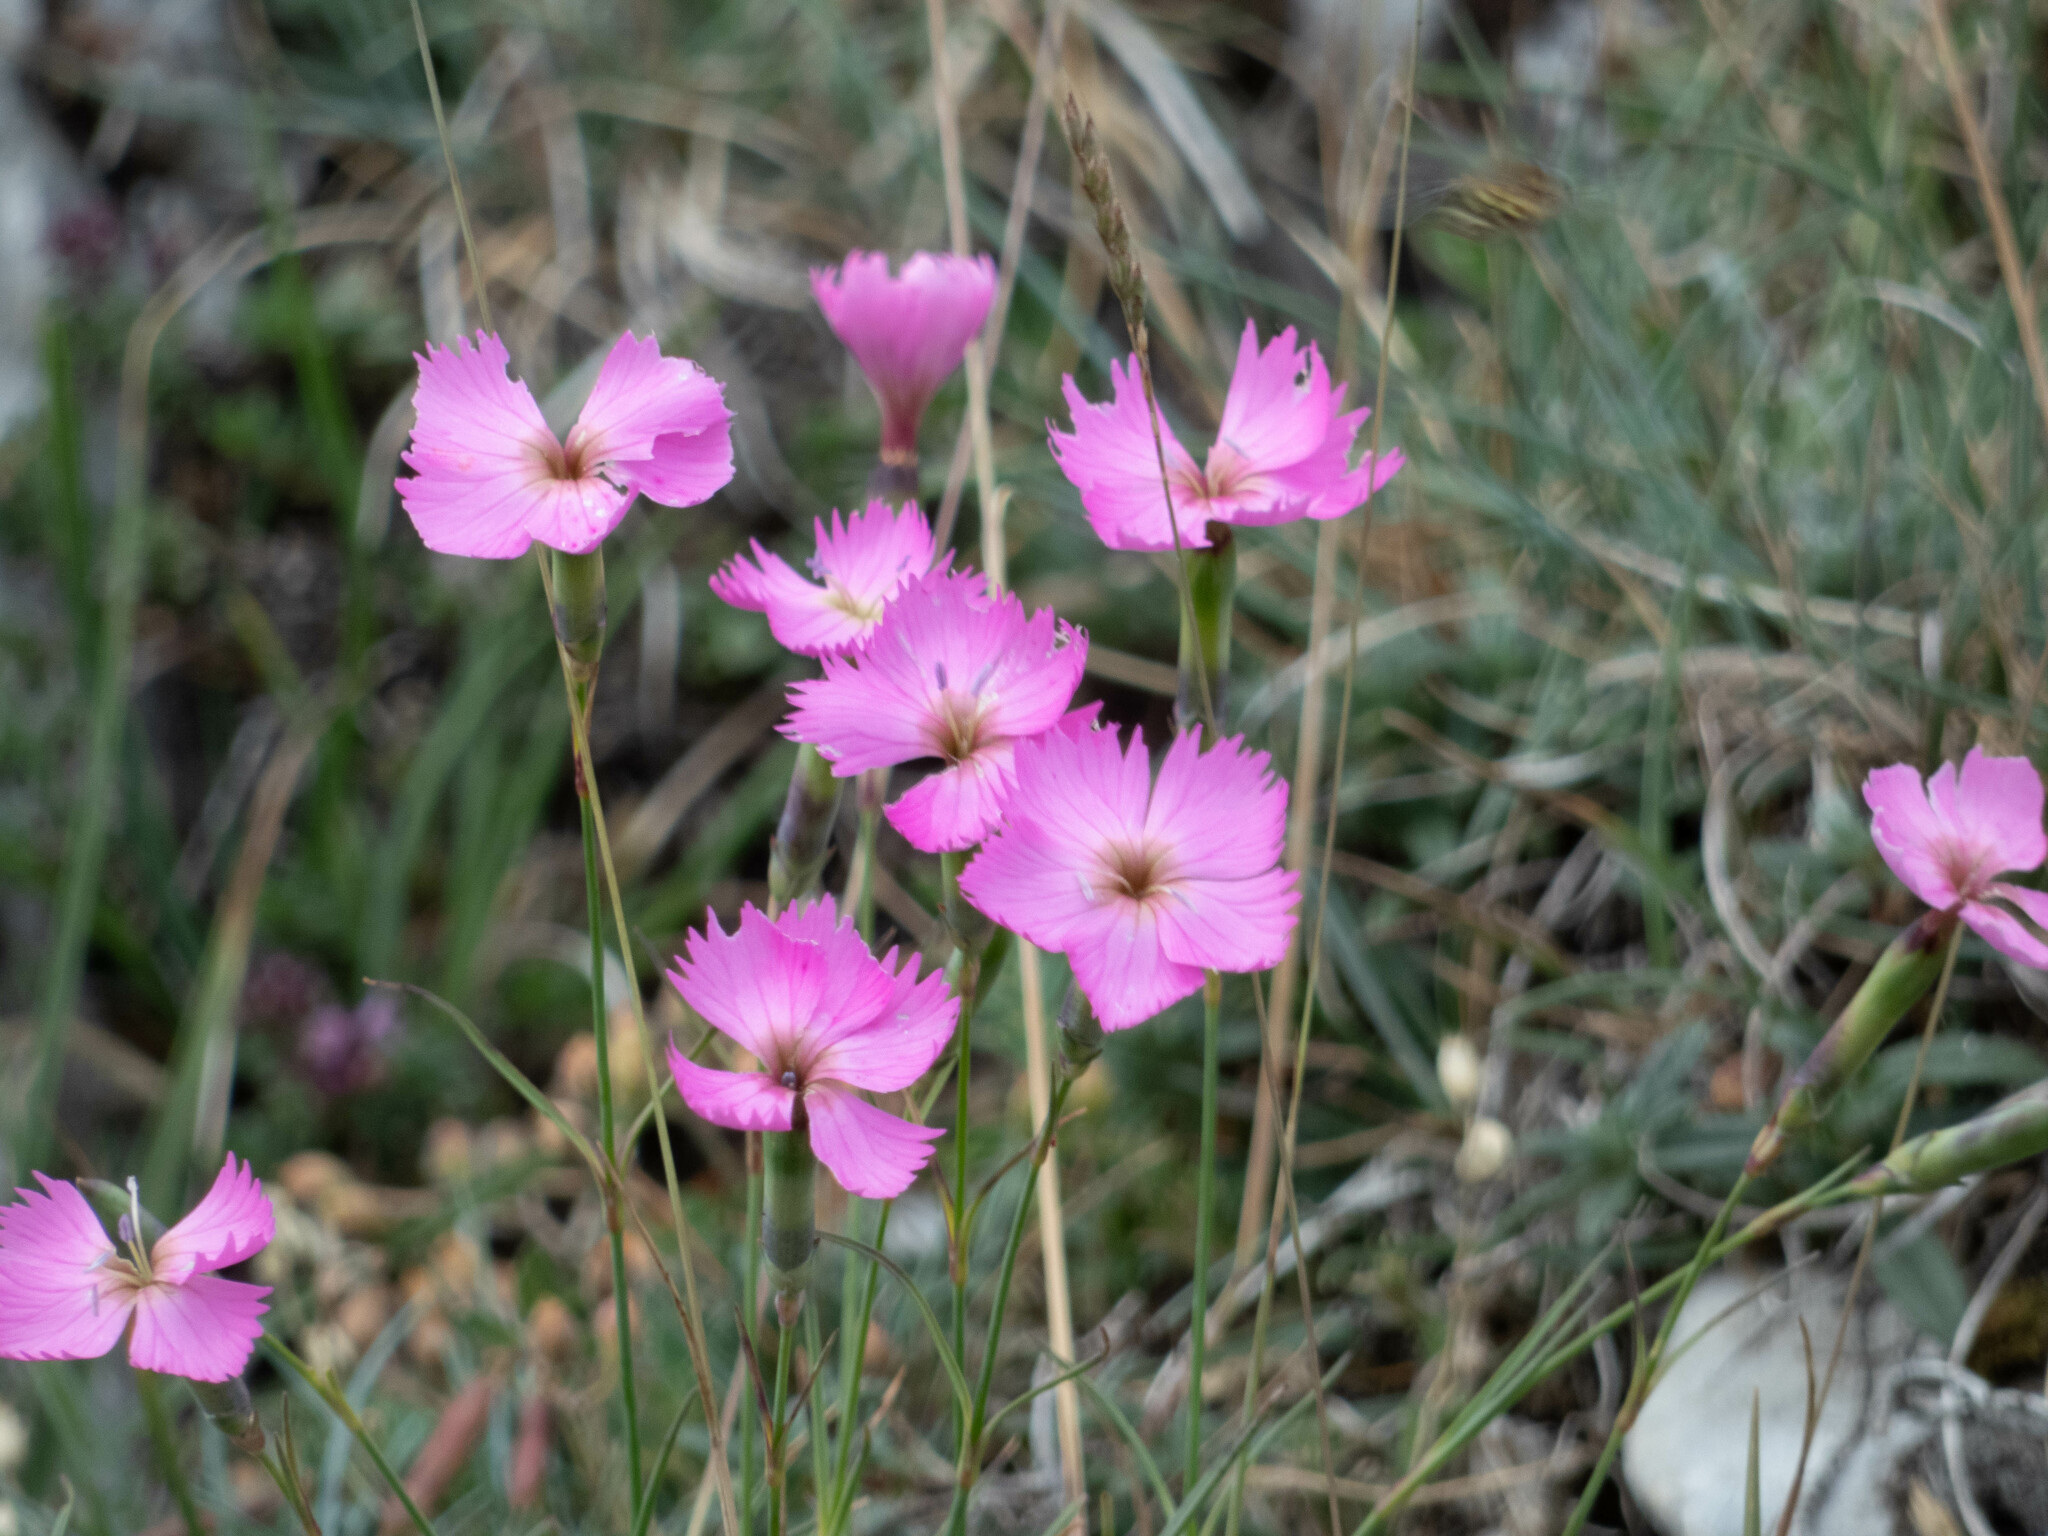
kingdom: Plantae
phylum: Tracheophyta
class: Magnoliopsida
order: Caryophyllales
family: Caryophyllaceae
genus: Dianthus
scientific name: Dianthus sylvestris
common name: Wood pink
